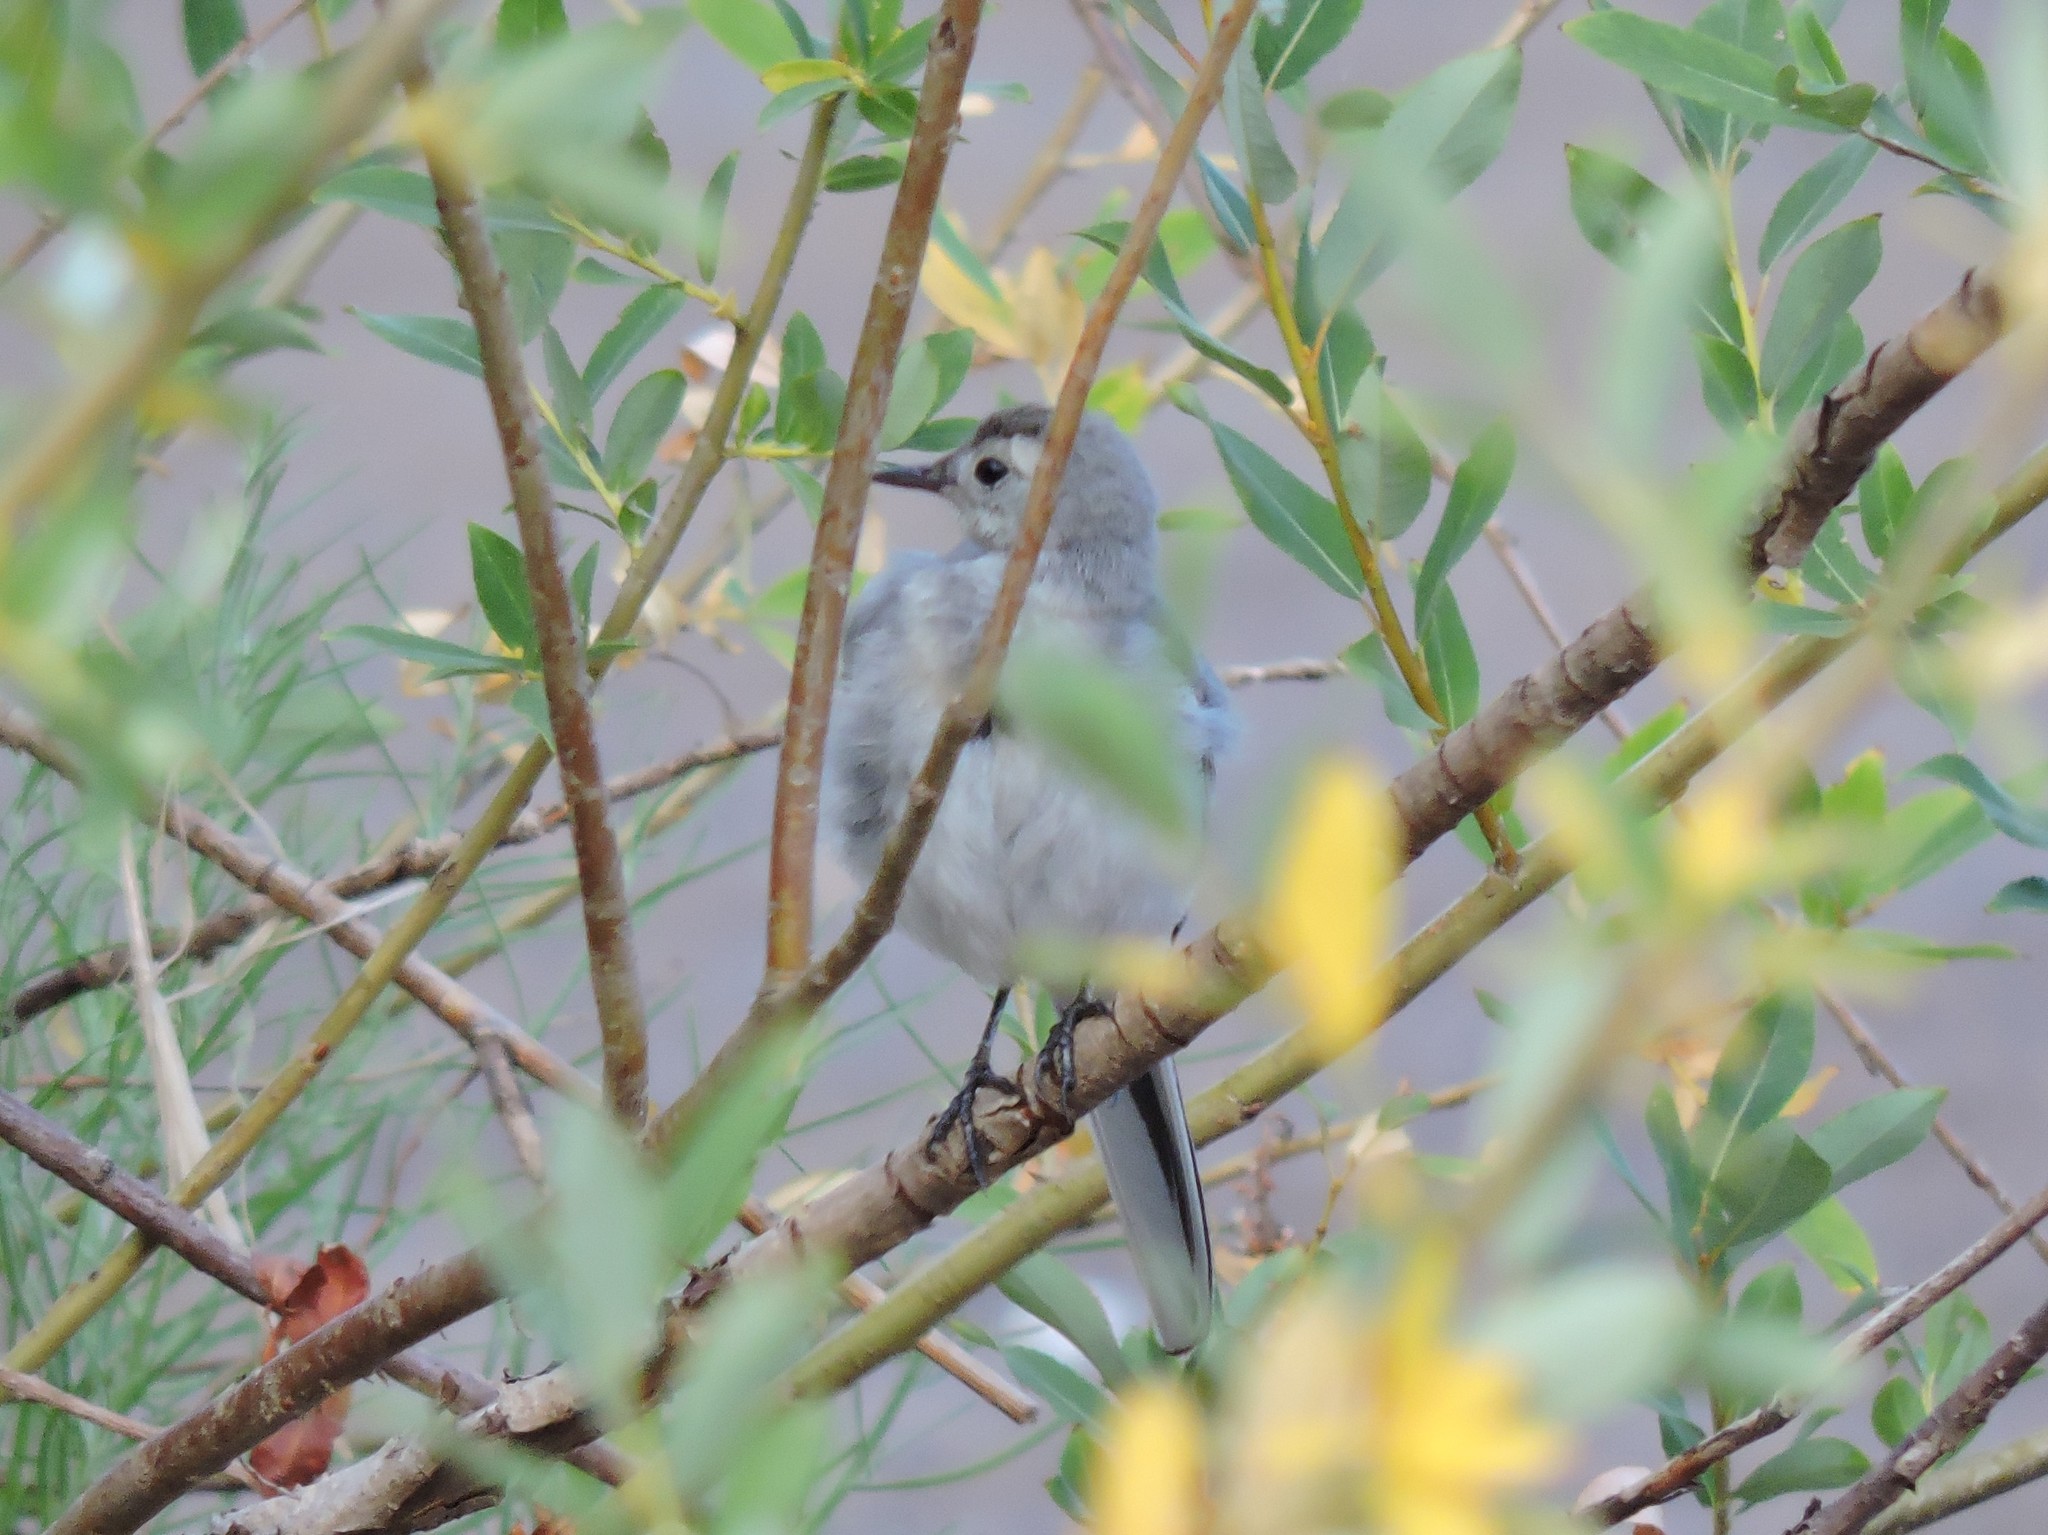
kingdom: Animalia
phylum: Chordata
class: Aves
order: Passeriformes
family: Motacillidae
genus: Motacilla
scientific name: Motacilla alba
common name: White wagtail
